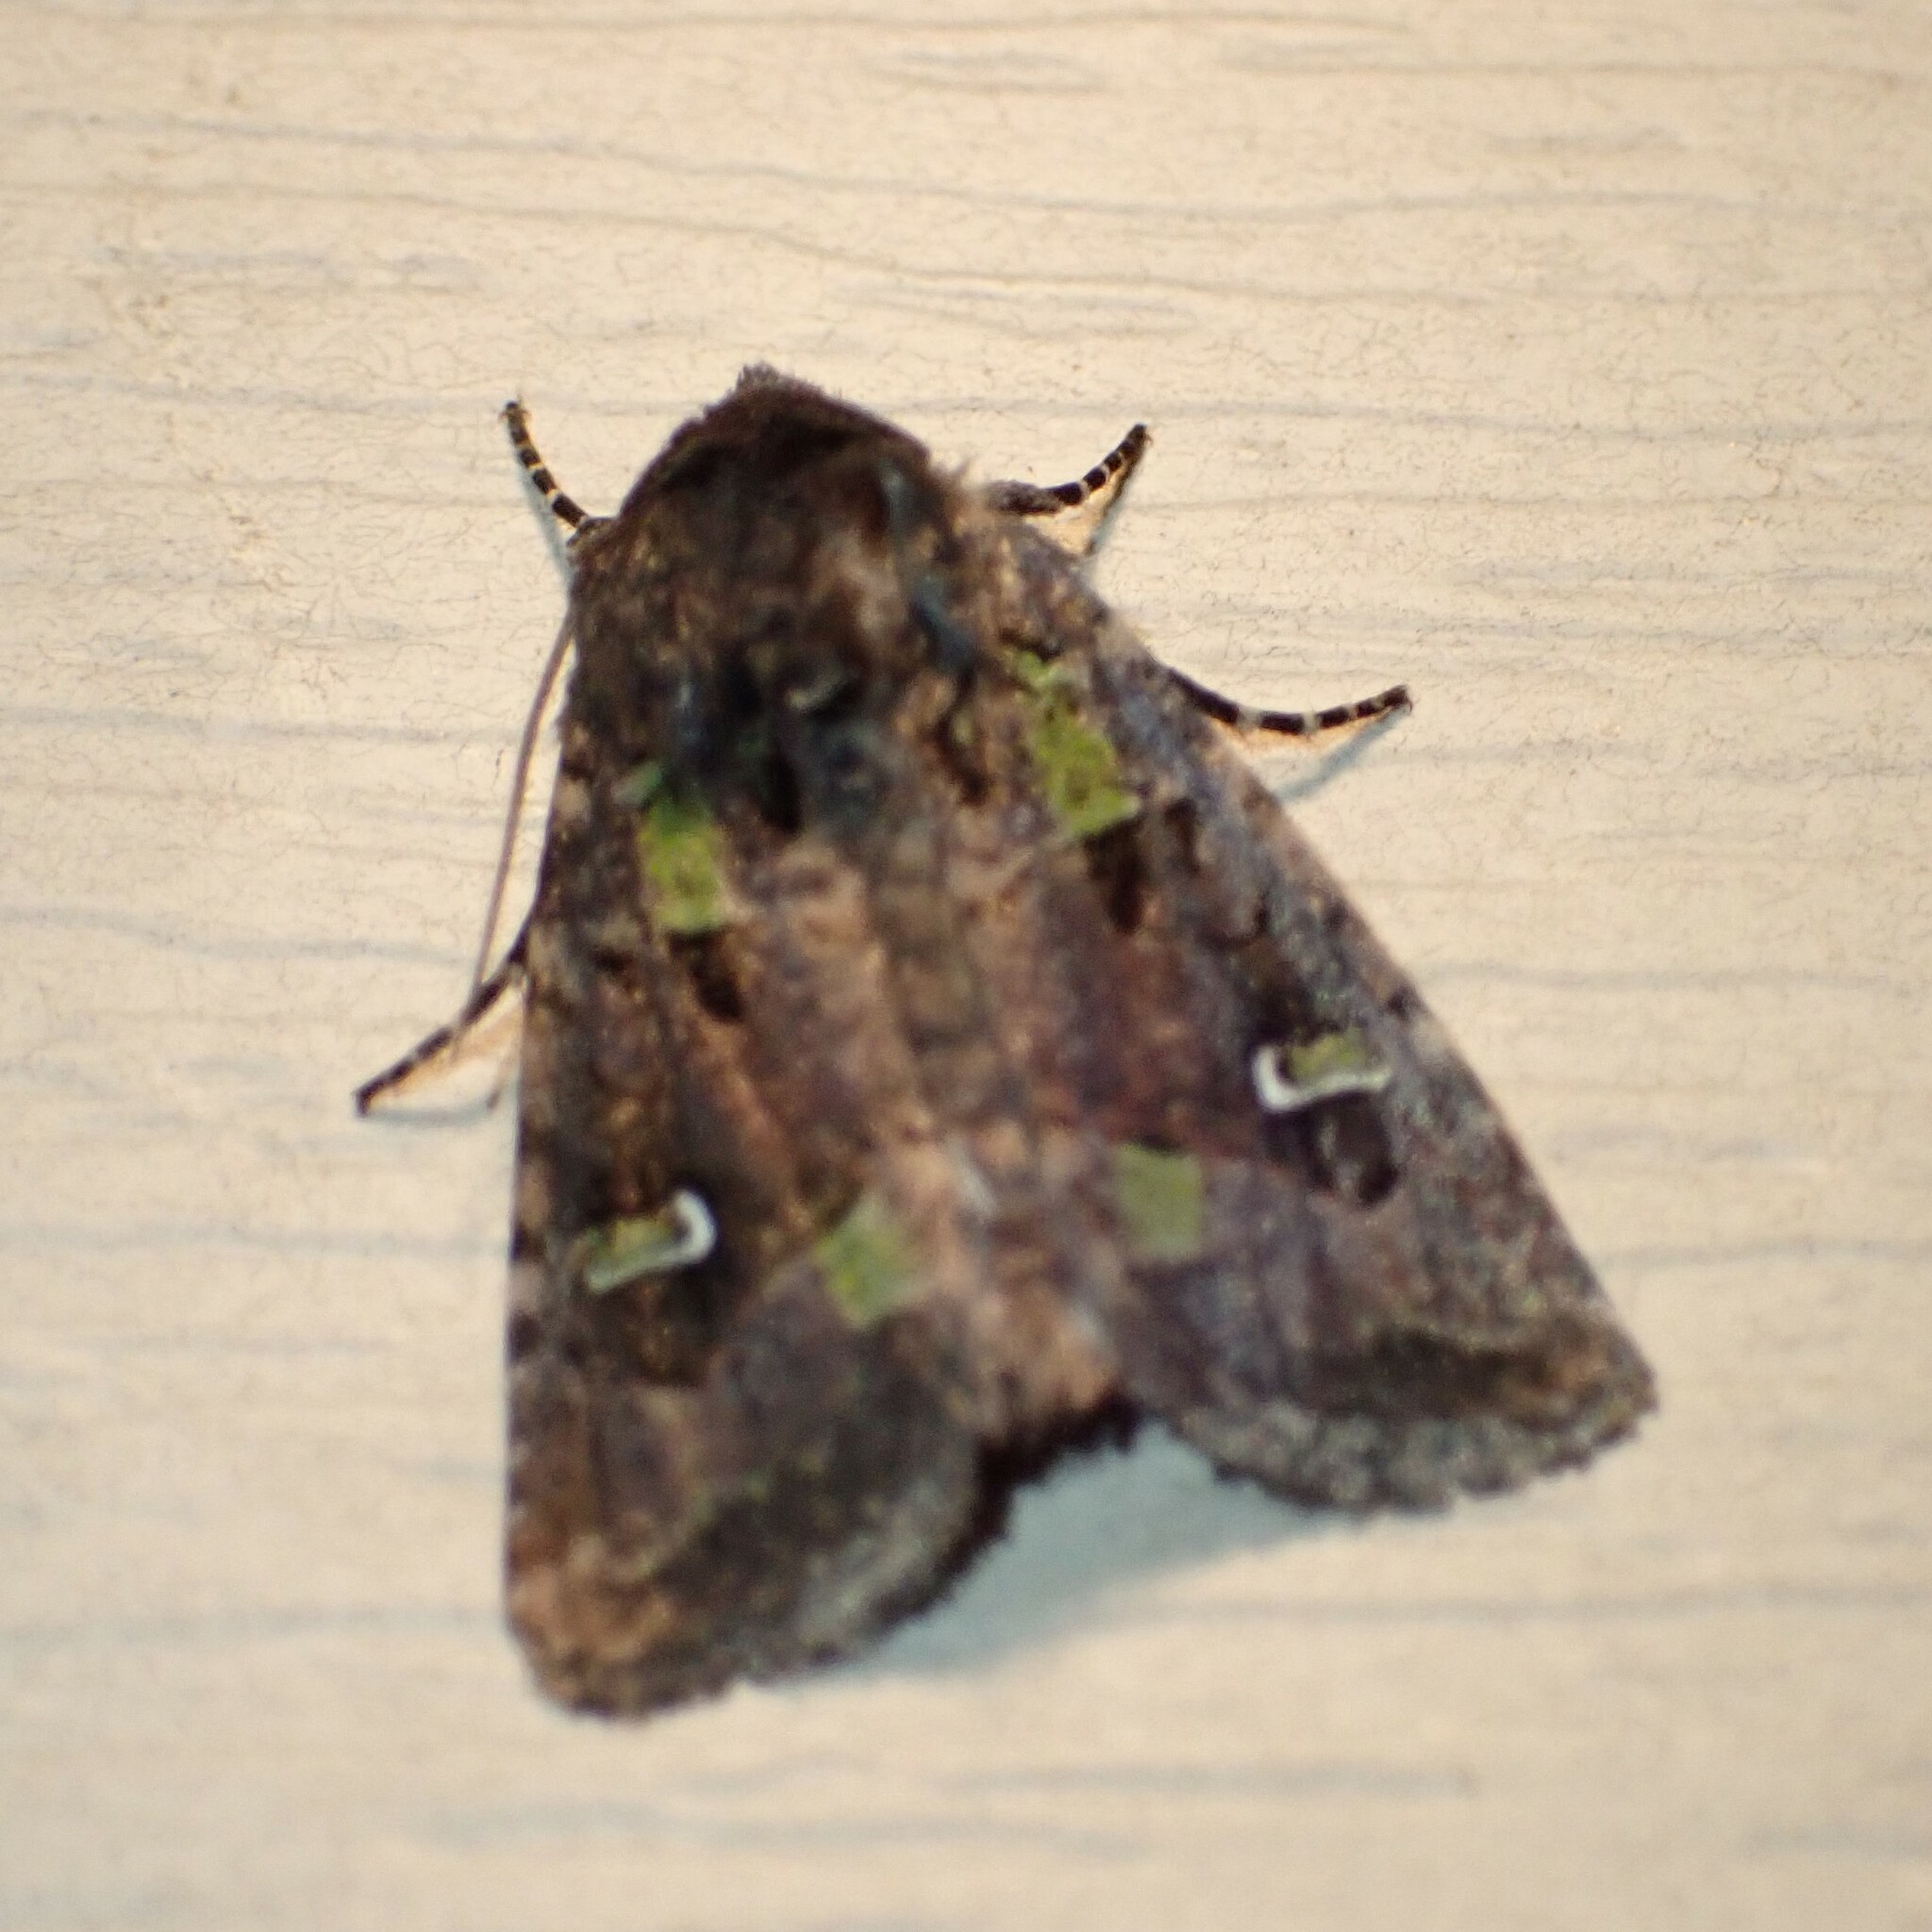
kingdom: Animalia
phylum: Arthropoda
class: Insecta
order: Lepidoptera
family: Noctuidae
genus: Lacinipolia
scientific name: Lacinipolia renigera
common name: Kidney-spotted minor
